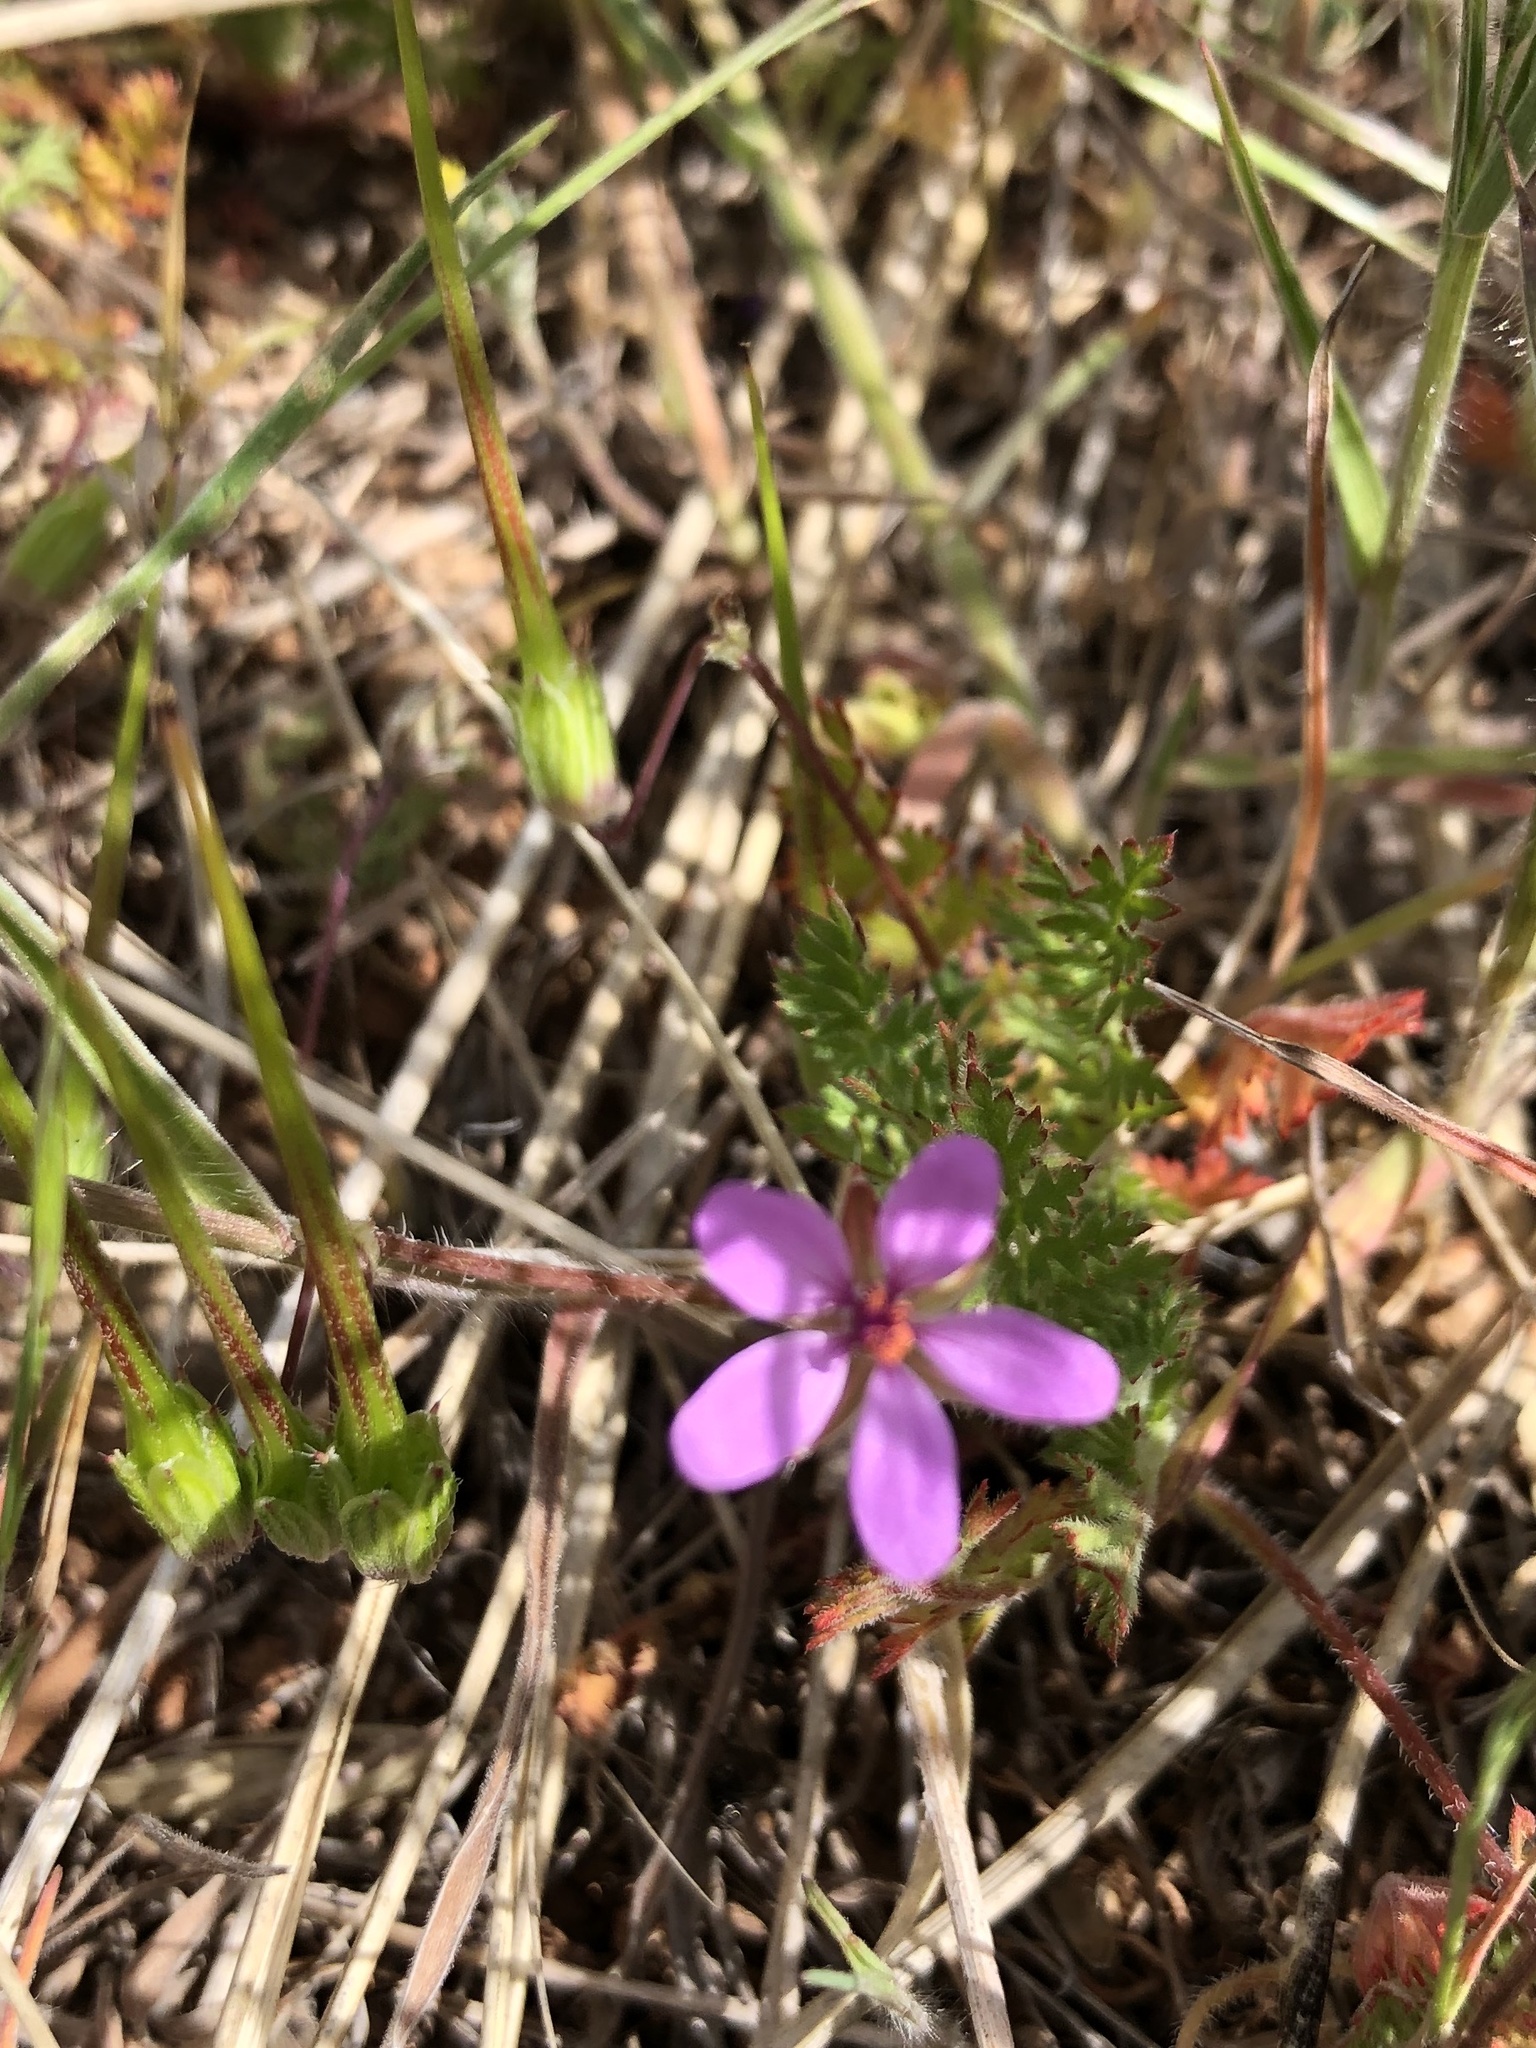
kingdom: Plantae
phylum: Tracheophyta
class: Magnoliopsida
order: Geraniales
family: Geraniaceae
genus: Erodium
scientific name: Erodium cicutarium
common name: Common stork's-bill
